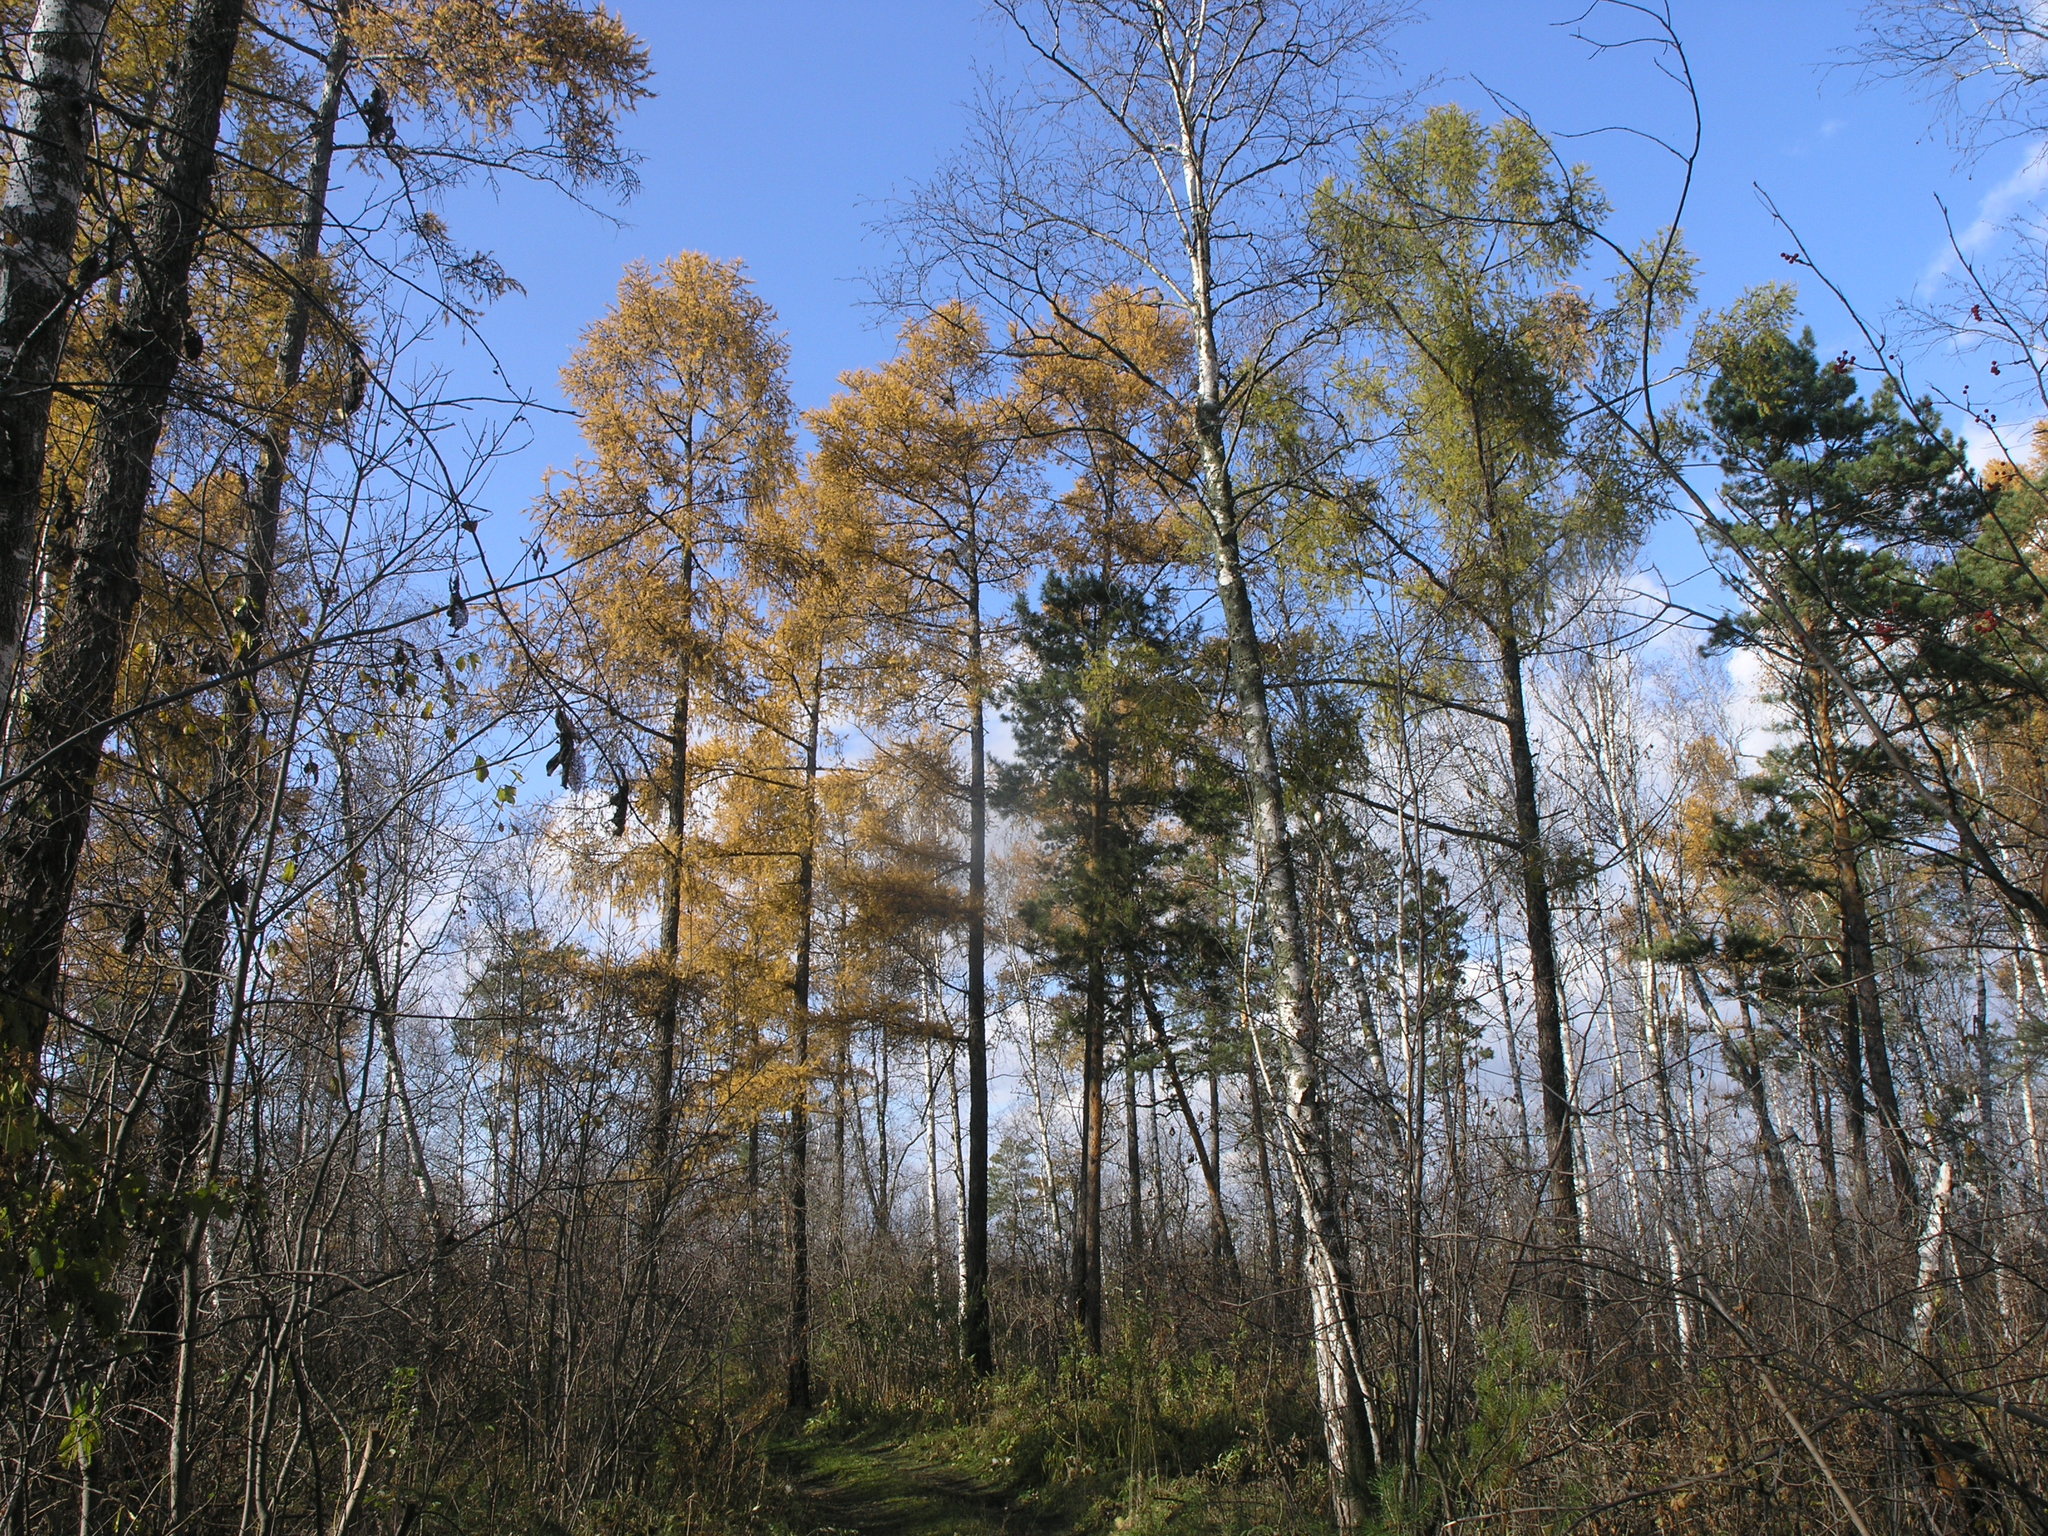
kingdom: Plantae
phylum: Tracheophyta
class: Pinopsida
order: Pinales
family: Pinaceae
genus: Larix
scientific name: Larix sibirica
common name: Siberian larch
